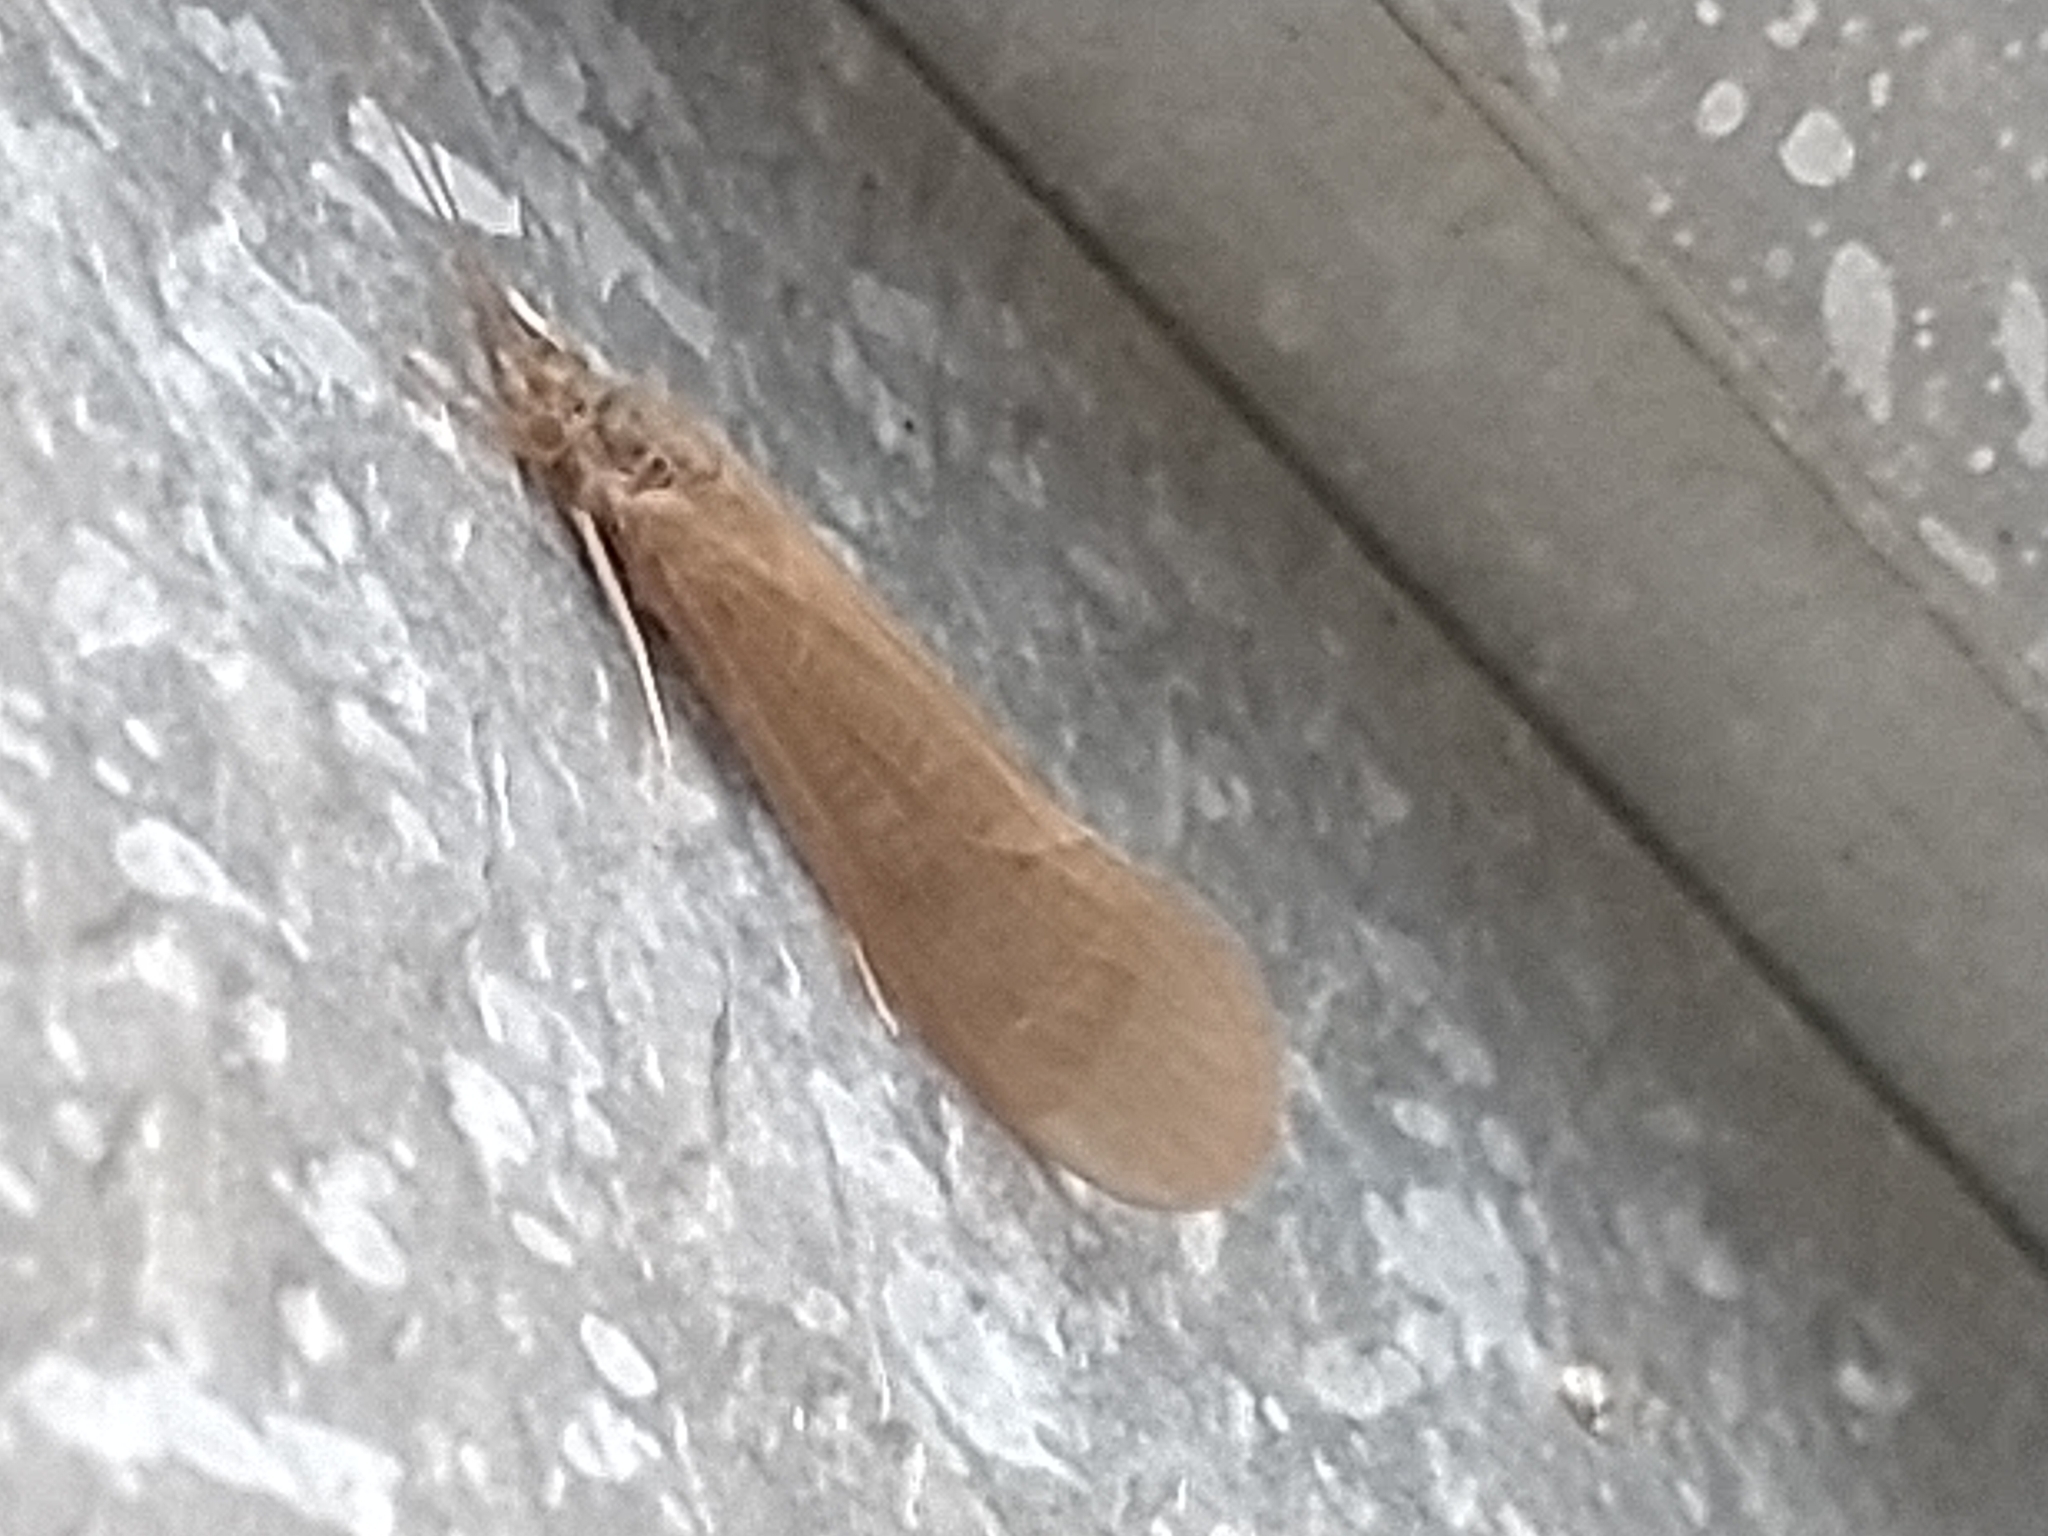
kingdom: Animalia
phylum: Arthropoda
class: Insecta
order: Trichoptera
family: Leptoceridae
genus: Oecetis
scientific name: Oecetis ochracea
